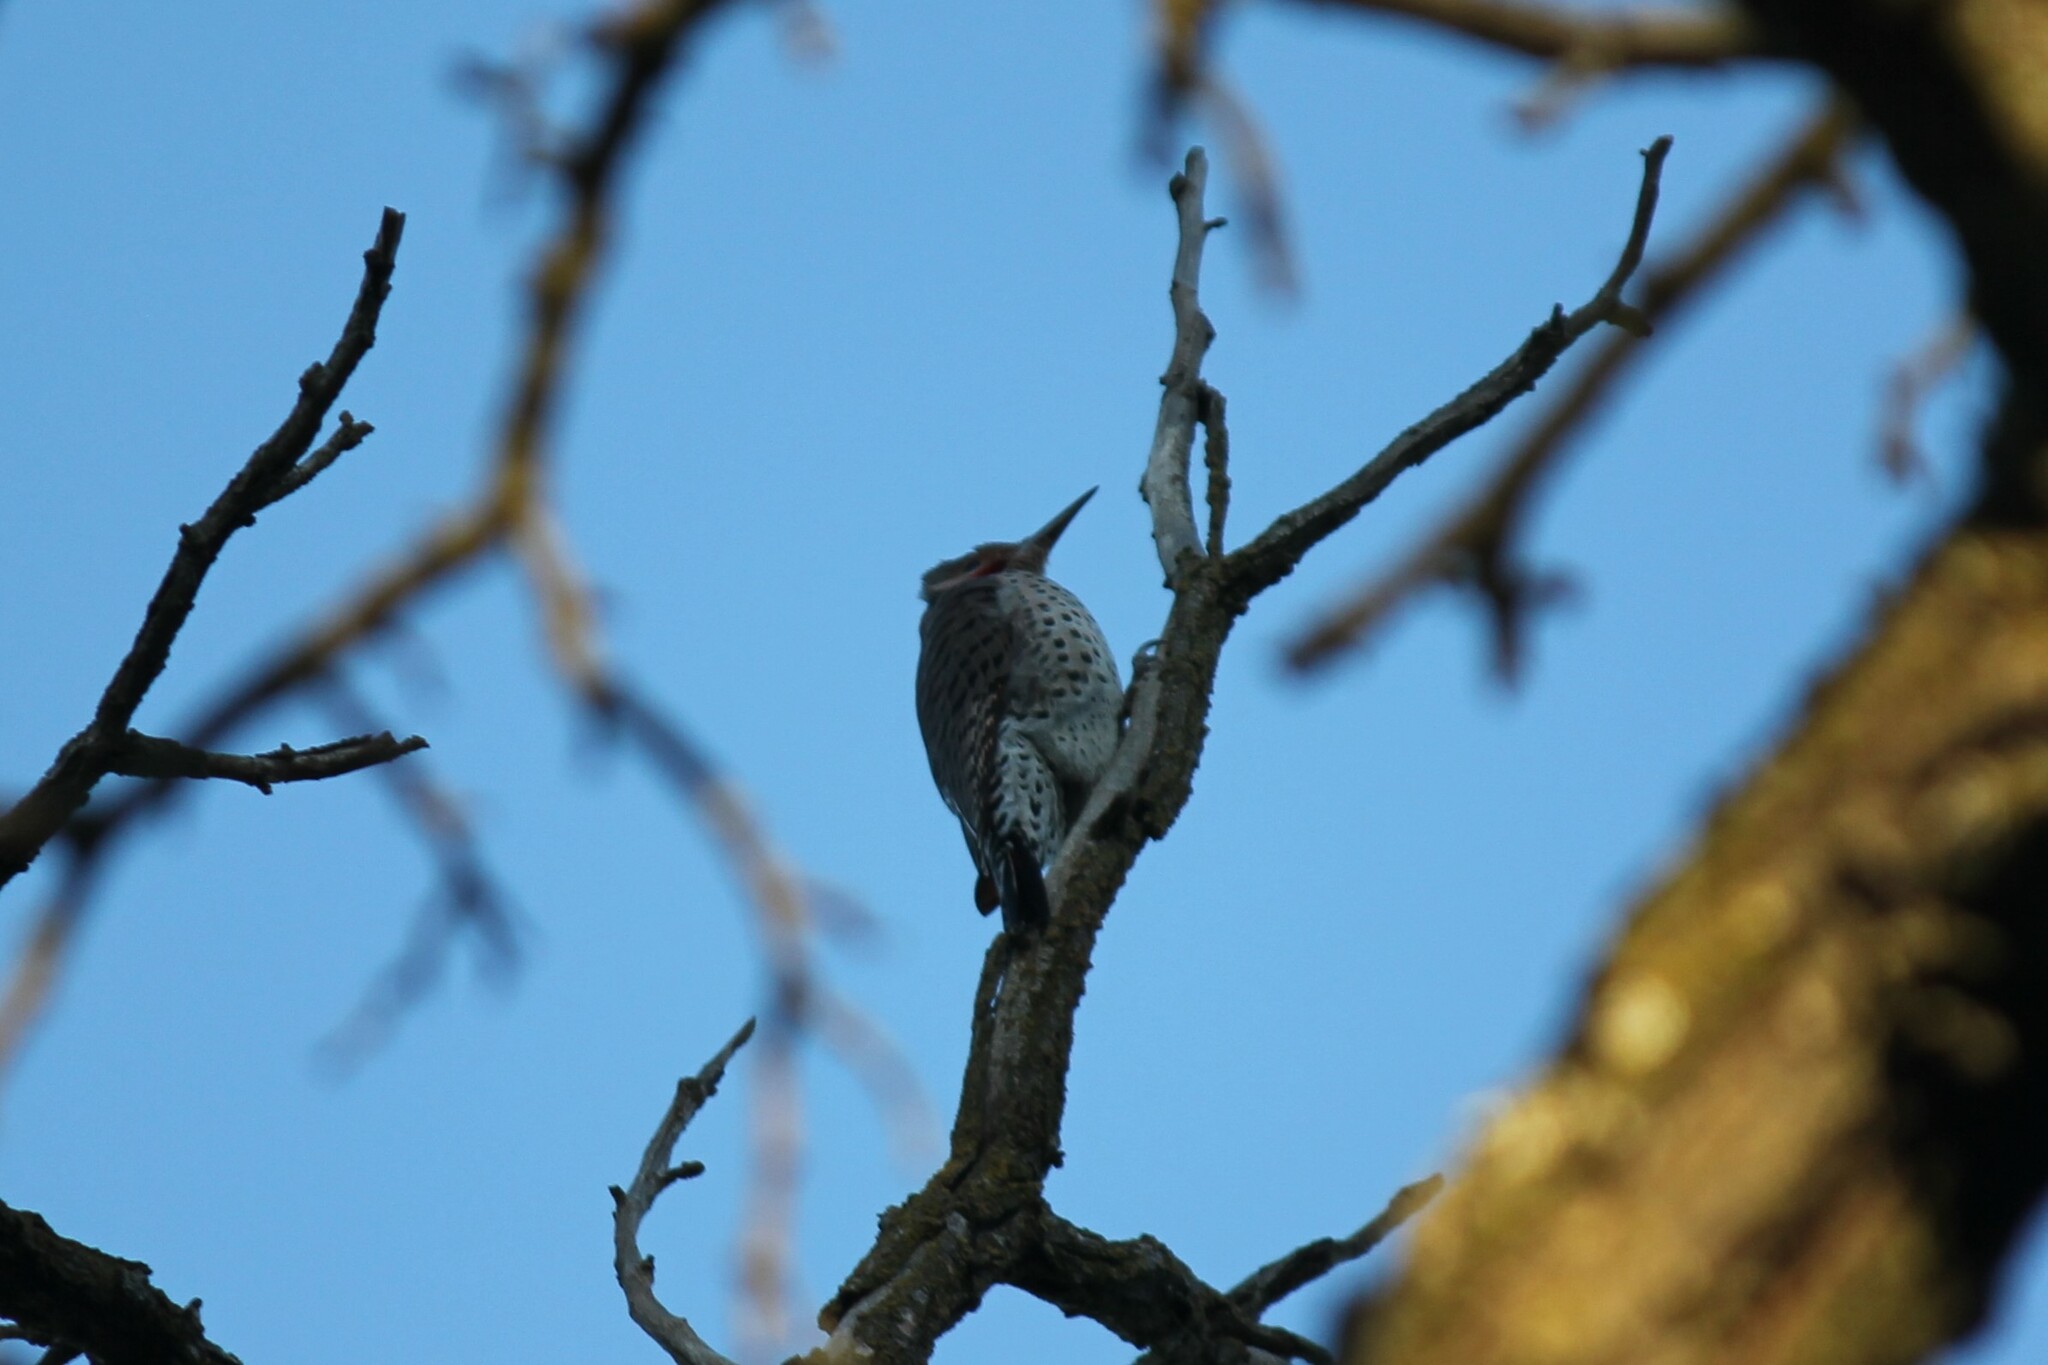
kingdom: Animalia
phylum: Chordata
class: Aves
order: Piciformes
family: Picidae
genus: Colaptes
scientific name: Colaptes auratus
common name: Northern flicker
